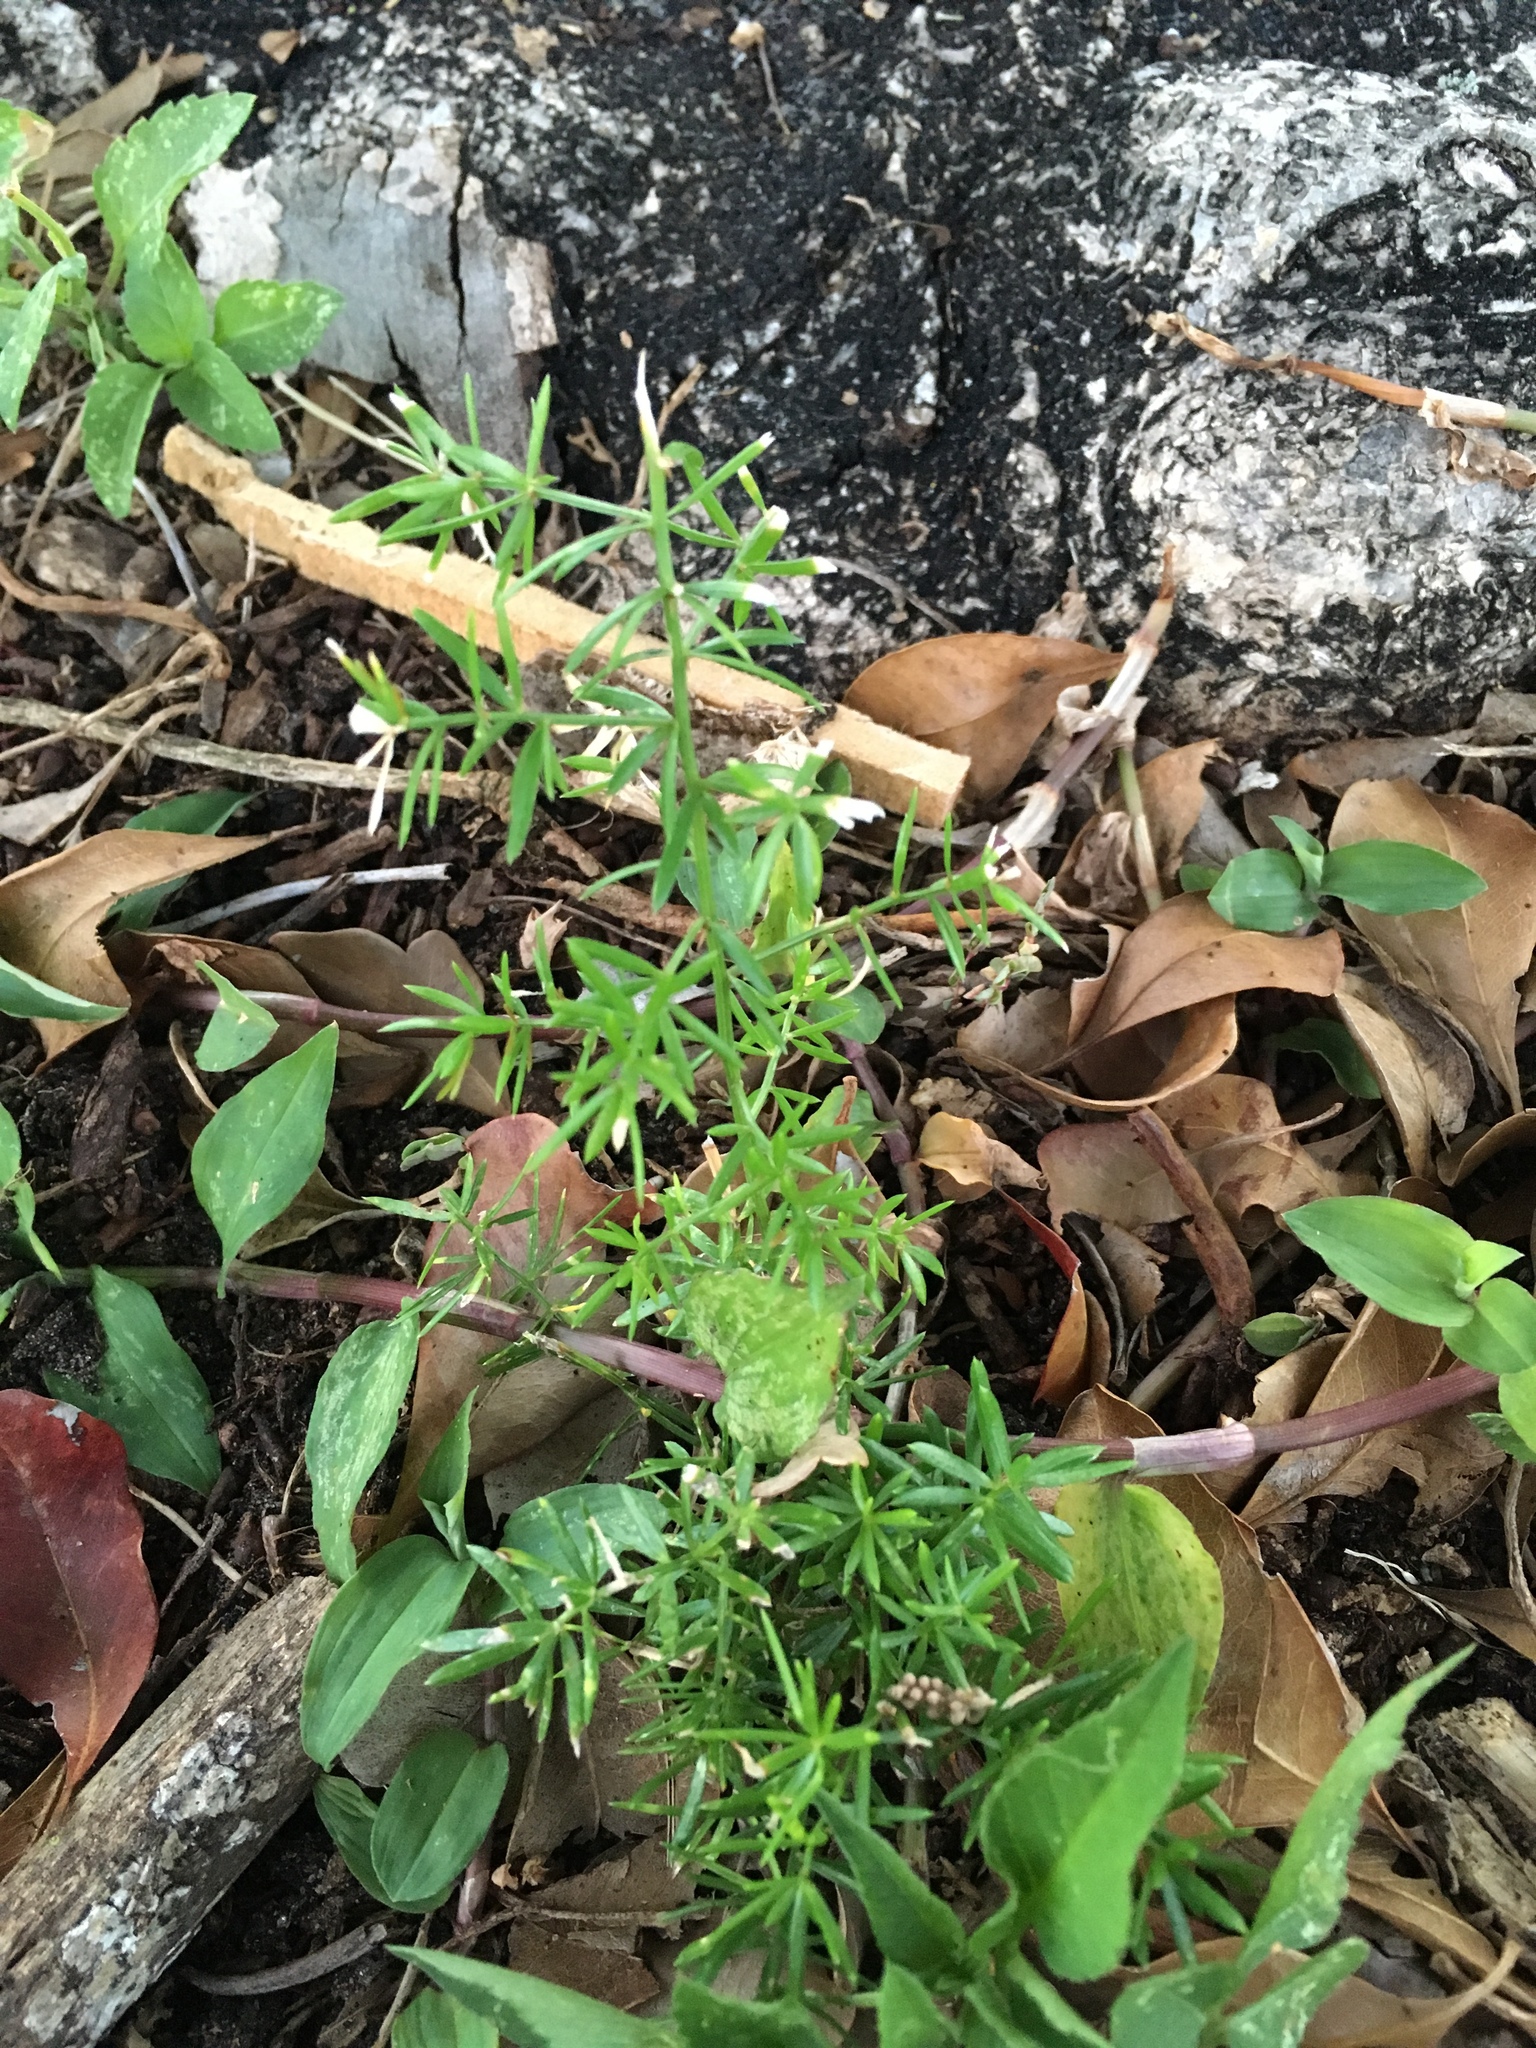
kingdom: Plantae
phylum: Tracheophyta
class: Liliopsida
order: Asparagales
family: Asparagaceae
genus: Asparagus
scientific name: Asparagus aethiopicus
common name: Sprenger's asparagus fern
